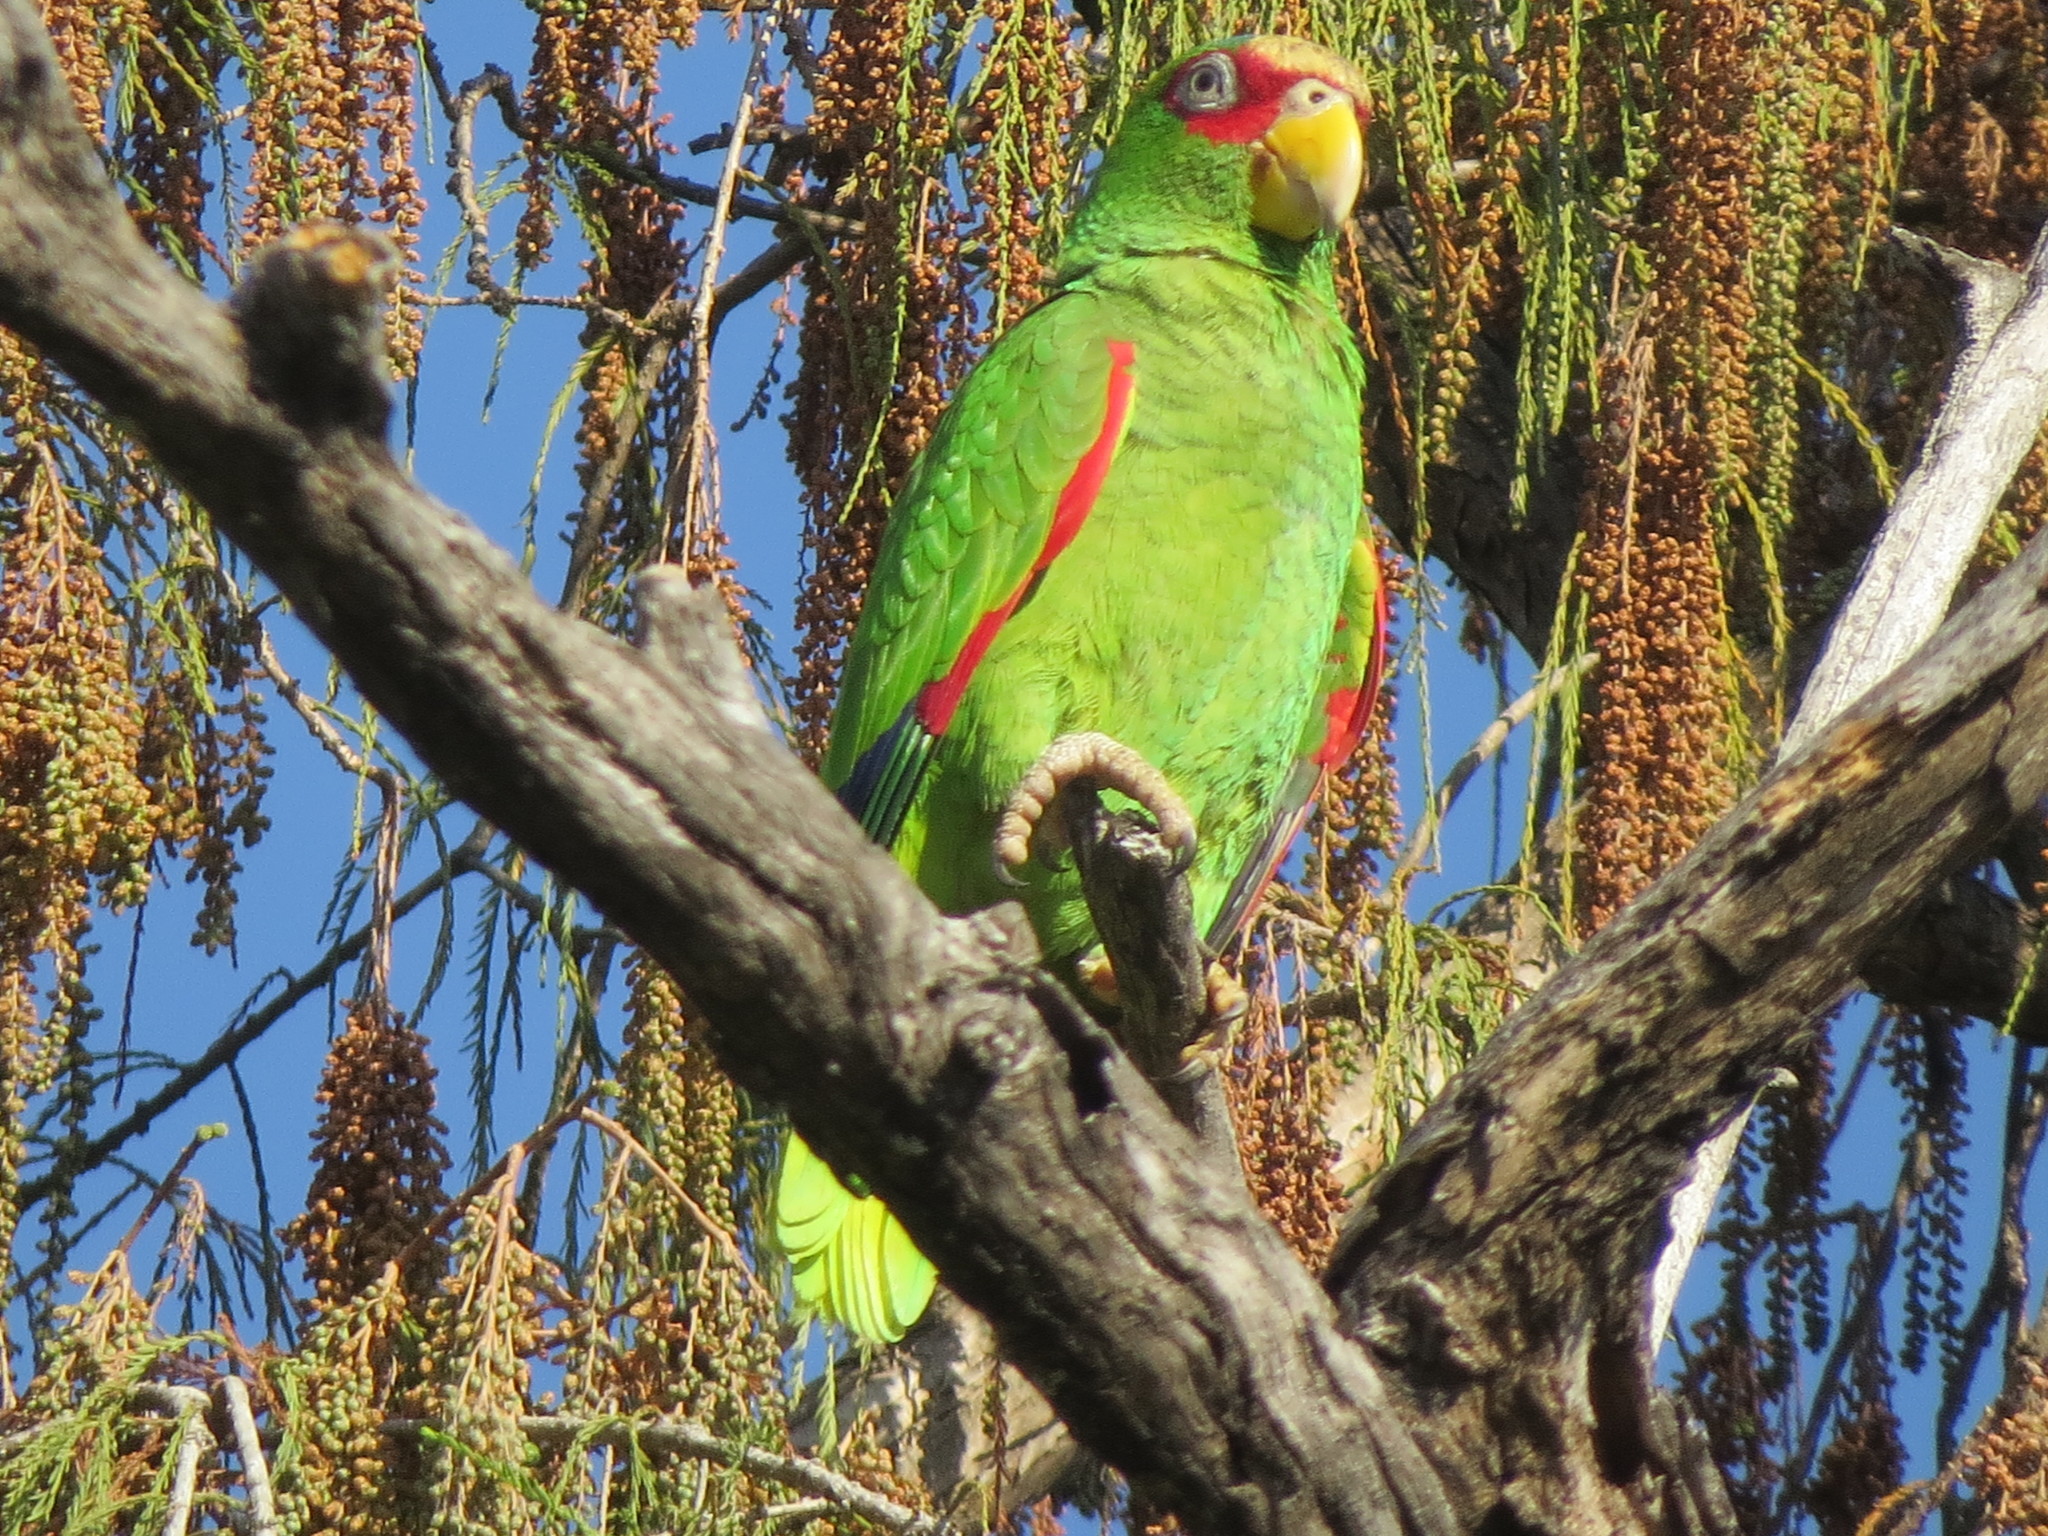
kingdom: Animalia
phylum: Chordata
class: Aves
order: Psittaciformes
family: Psittacidae
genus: Amazona
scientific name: Amazona albifrons
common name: White-fronted amazon
